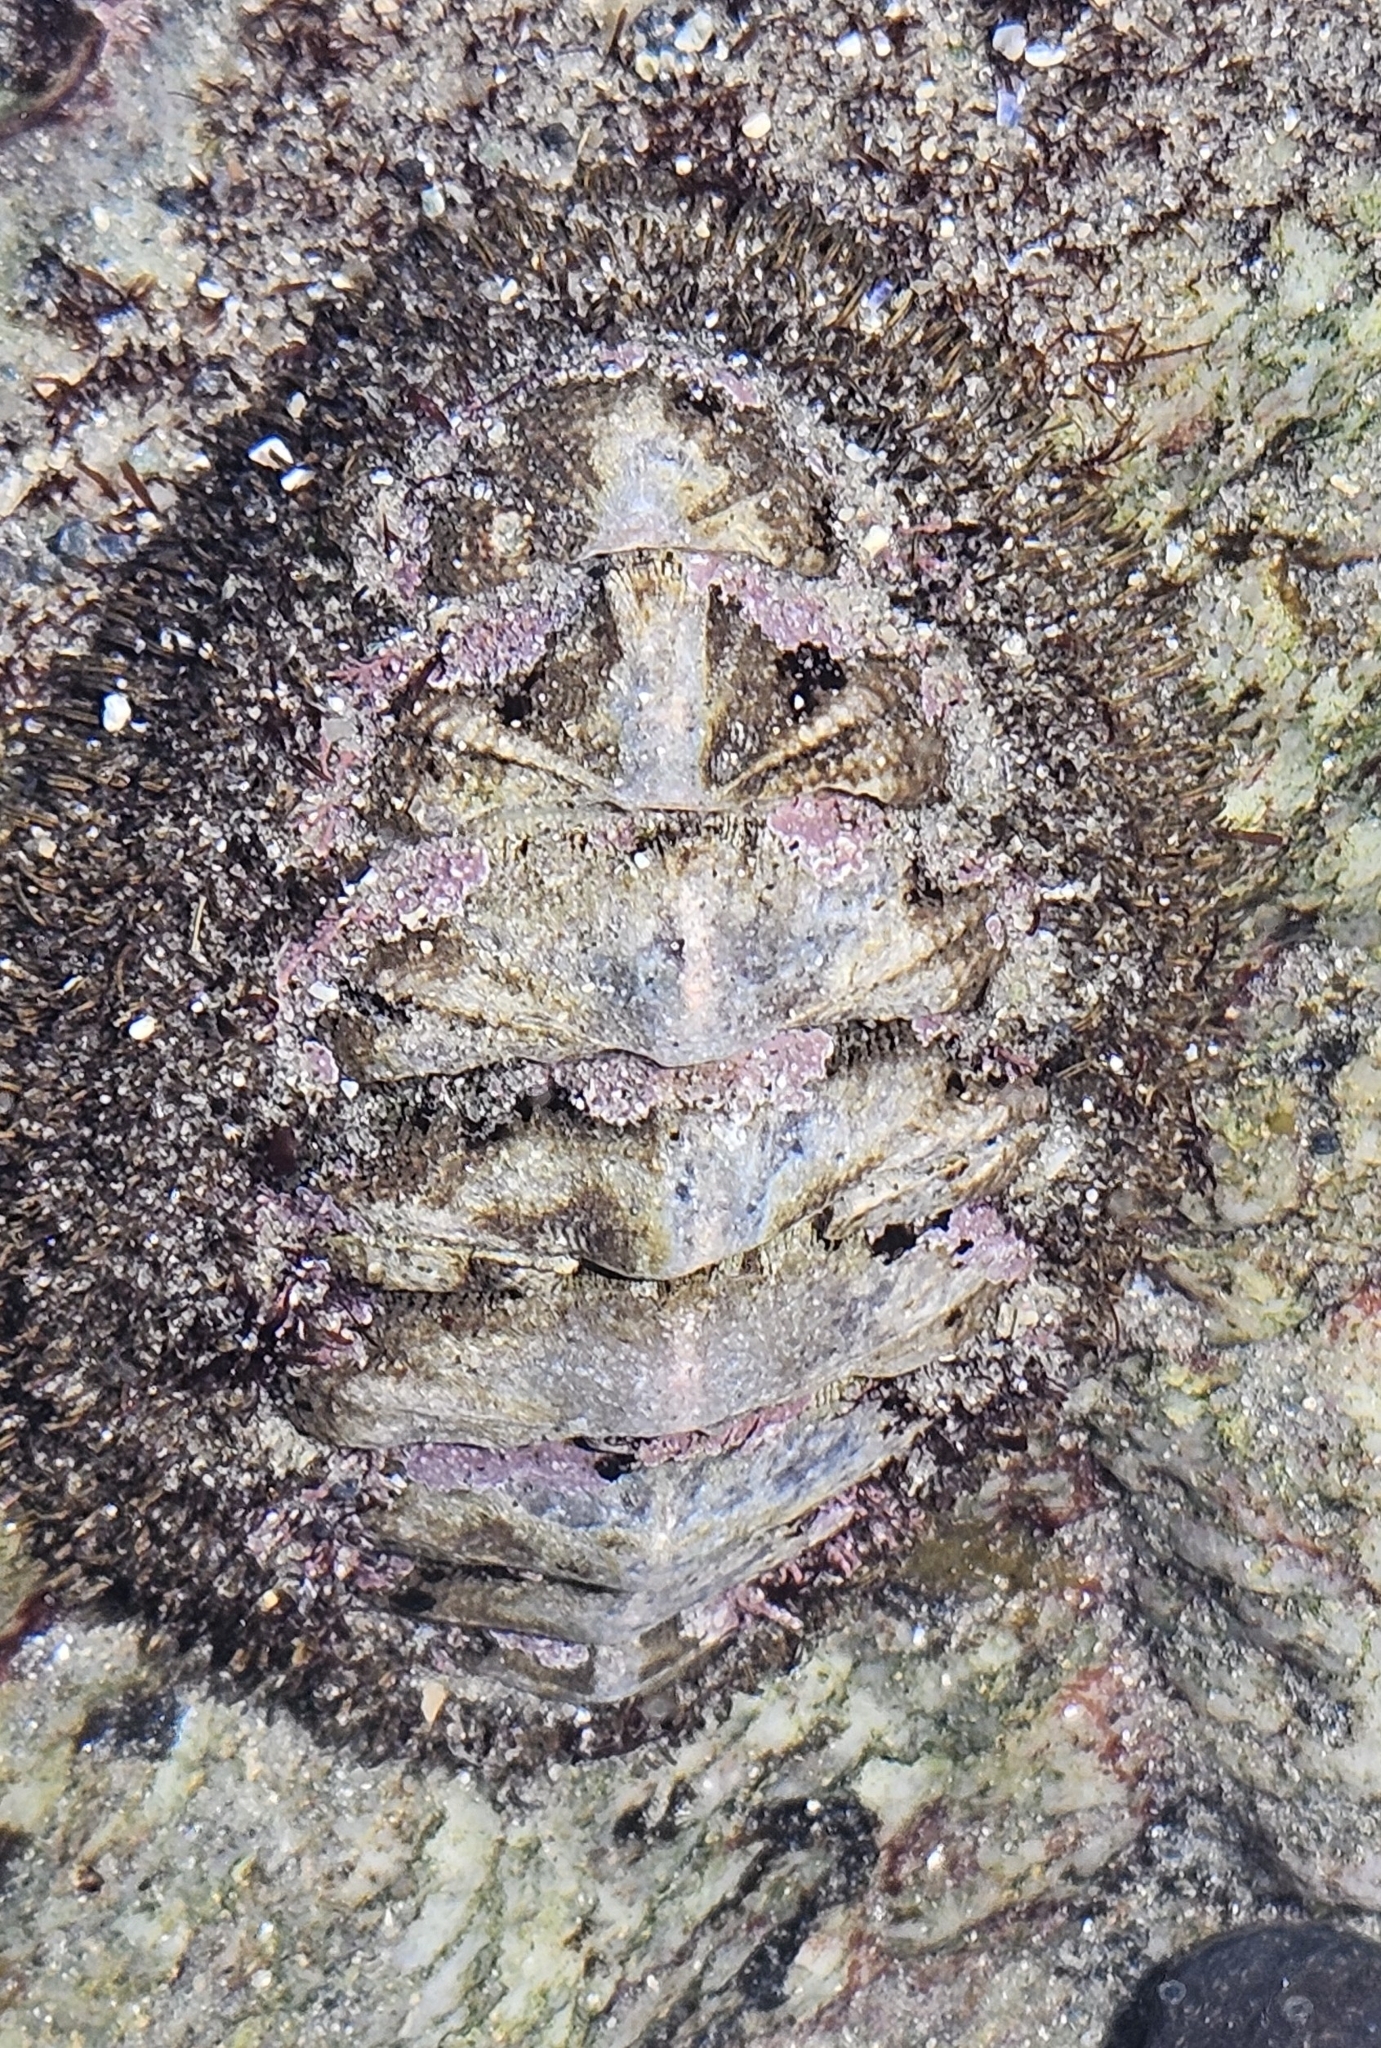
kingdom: Animalia
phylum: Mollusca
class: Polyplacophora
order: Chitonida
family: Mopaliidae
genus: Mopalia
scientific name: Mopalia muscosa
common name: Mossy chiton
